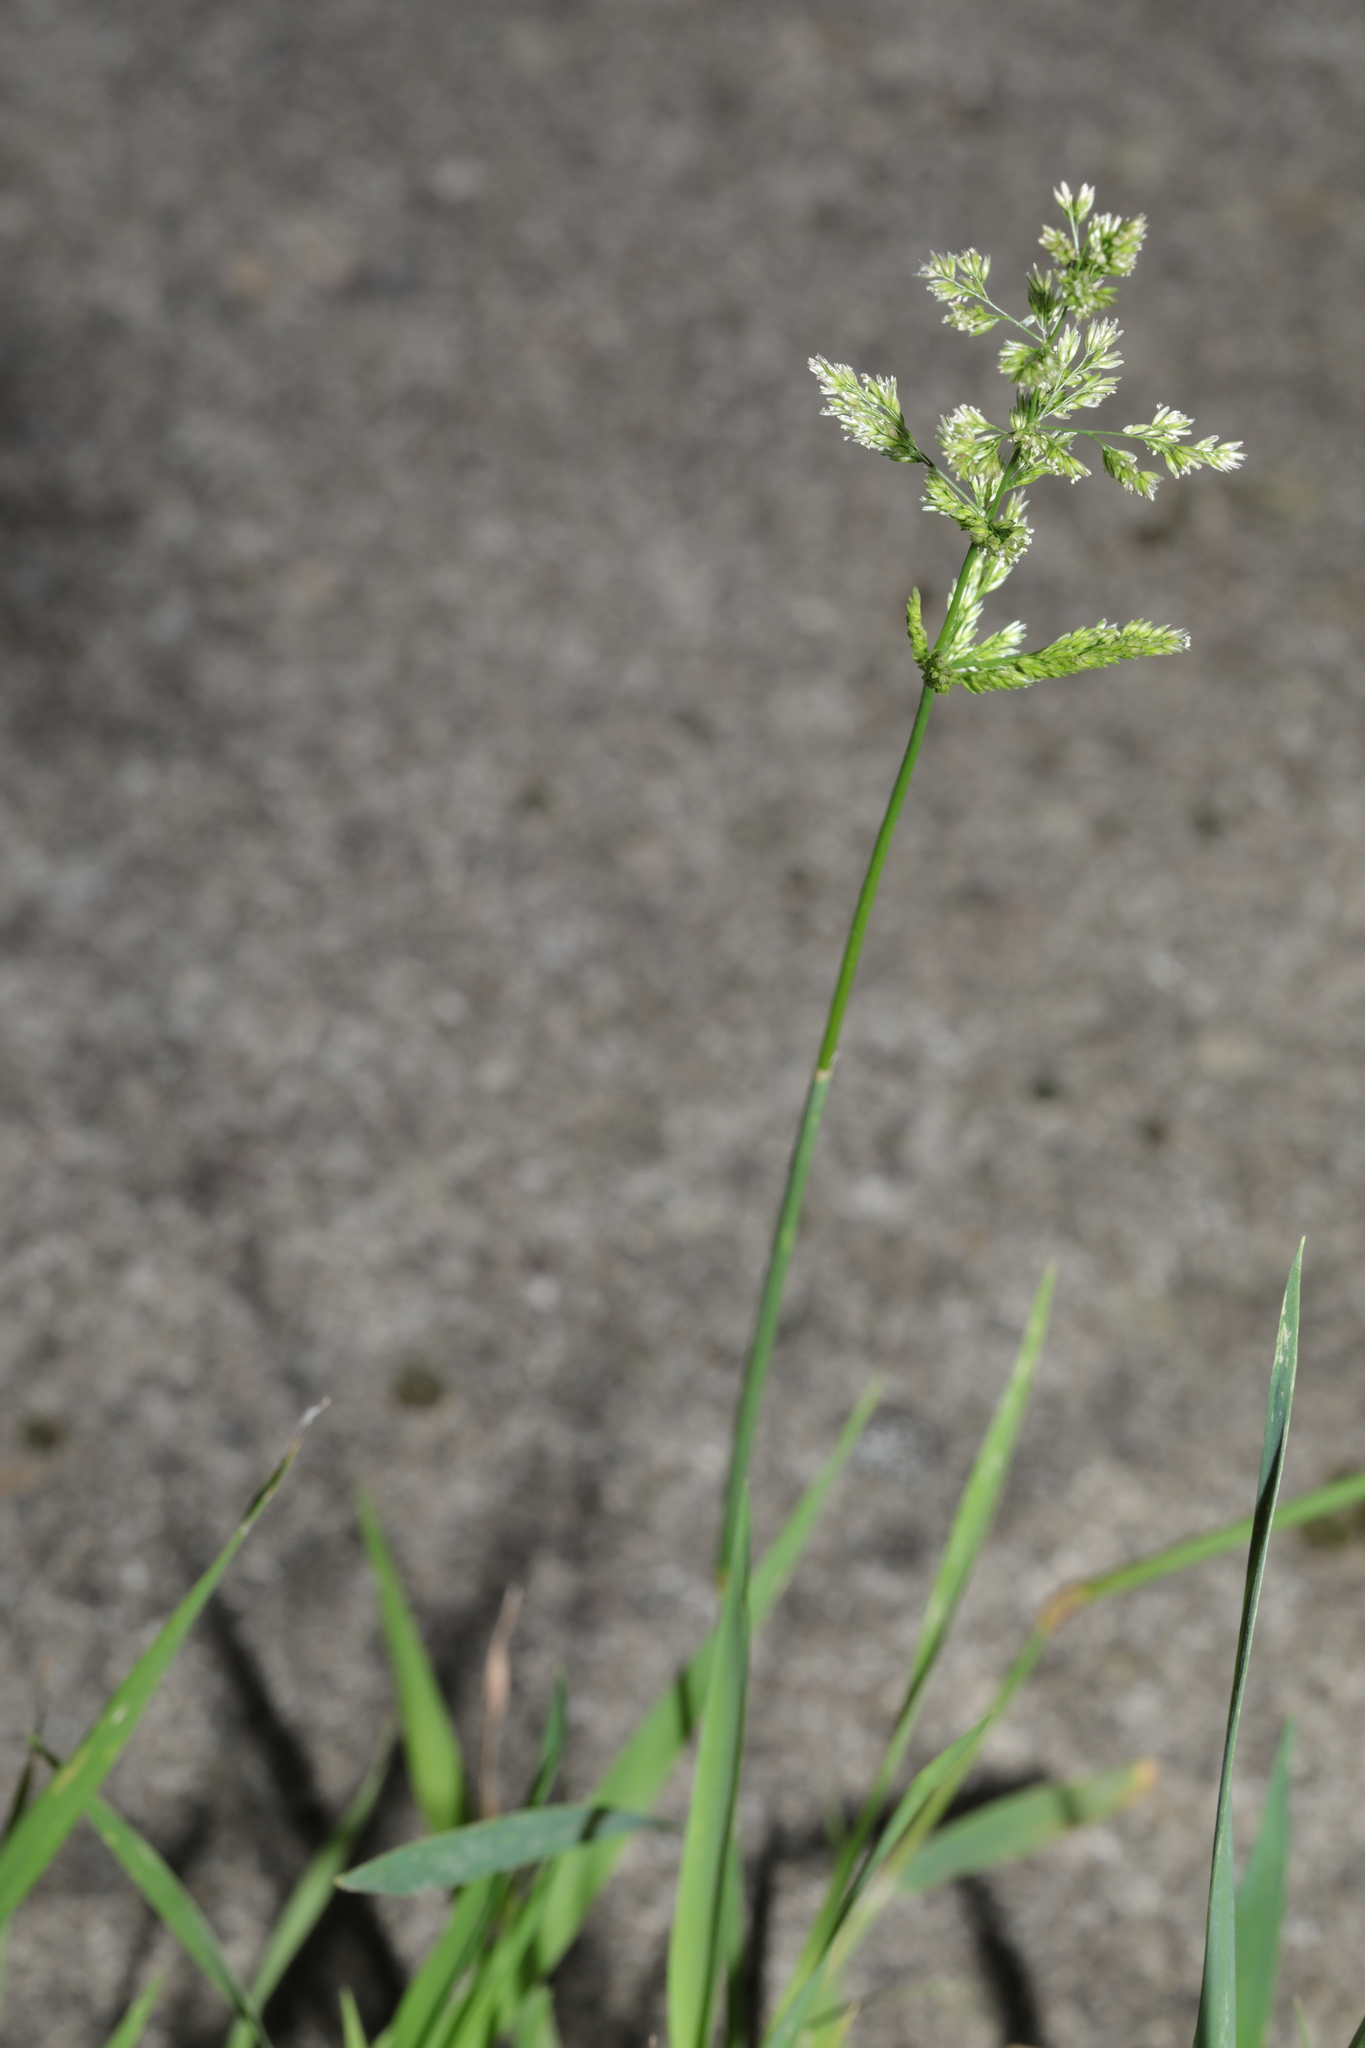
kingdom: Plantae
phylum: Tracheophyta
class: Liliopsida
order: Poales
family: Poaceae
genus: Polypogon
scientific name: Polypogon viridis
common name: Water bent
